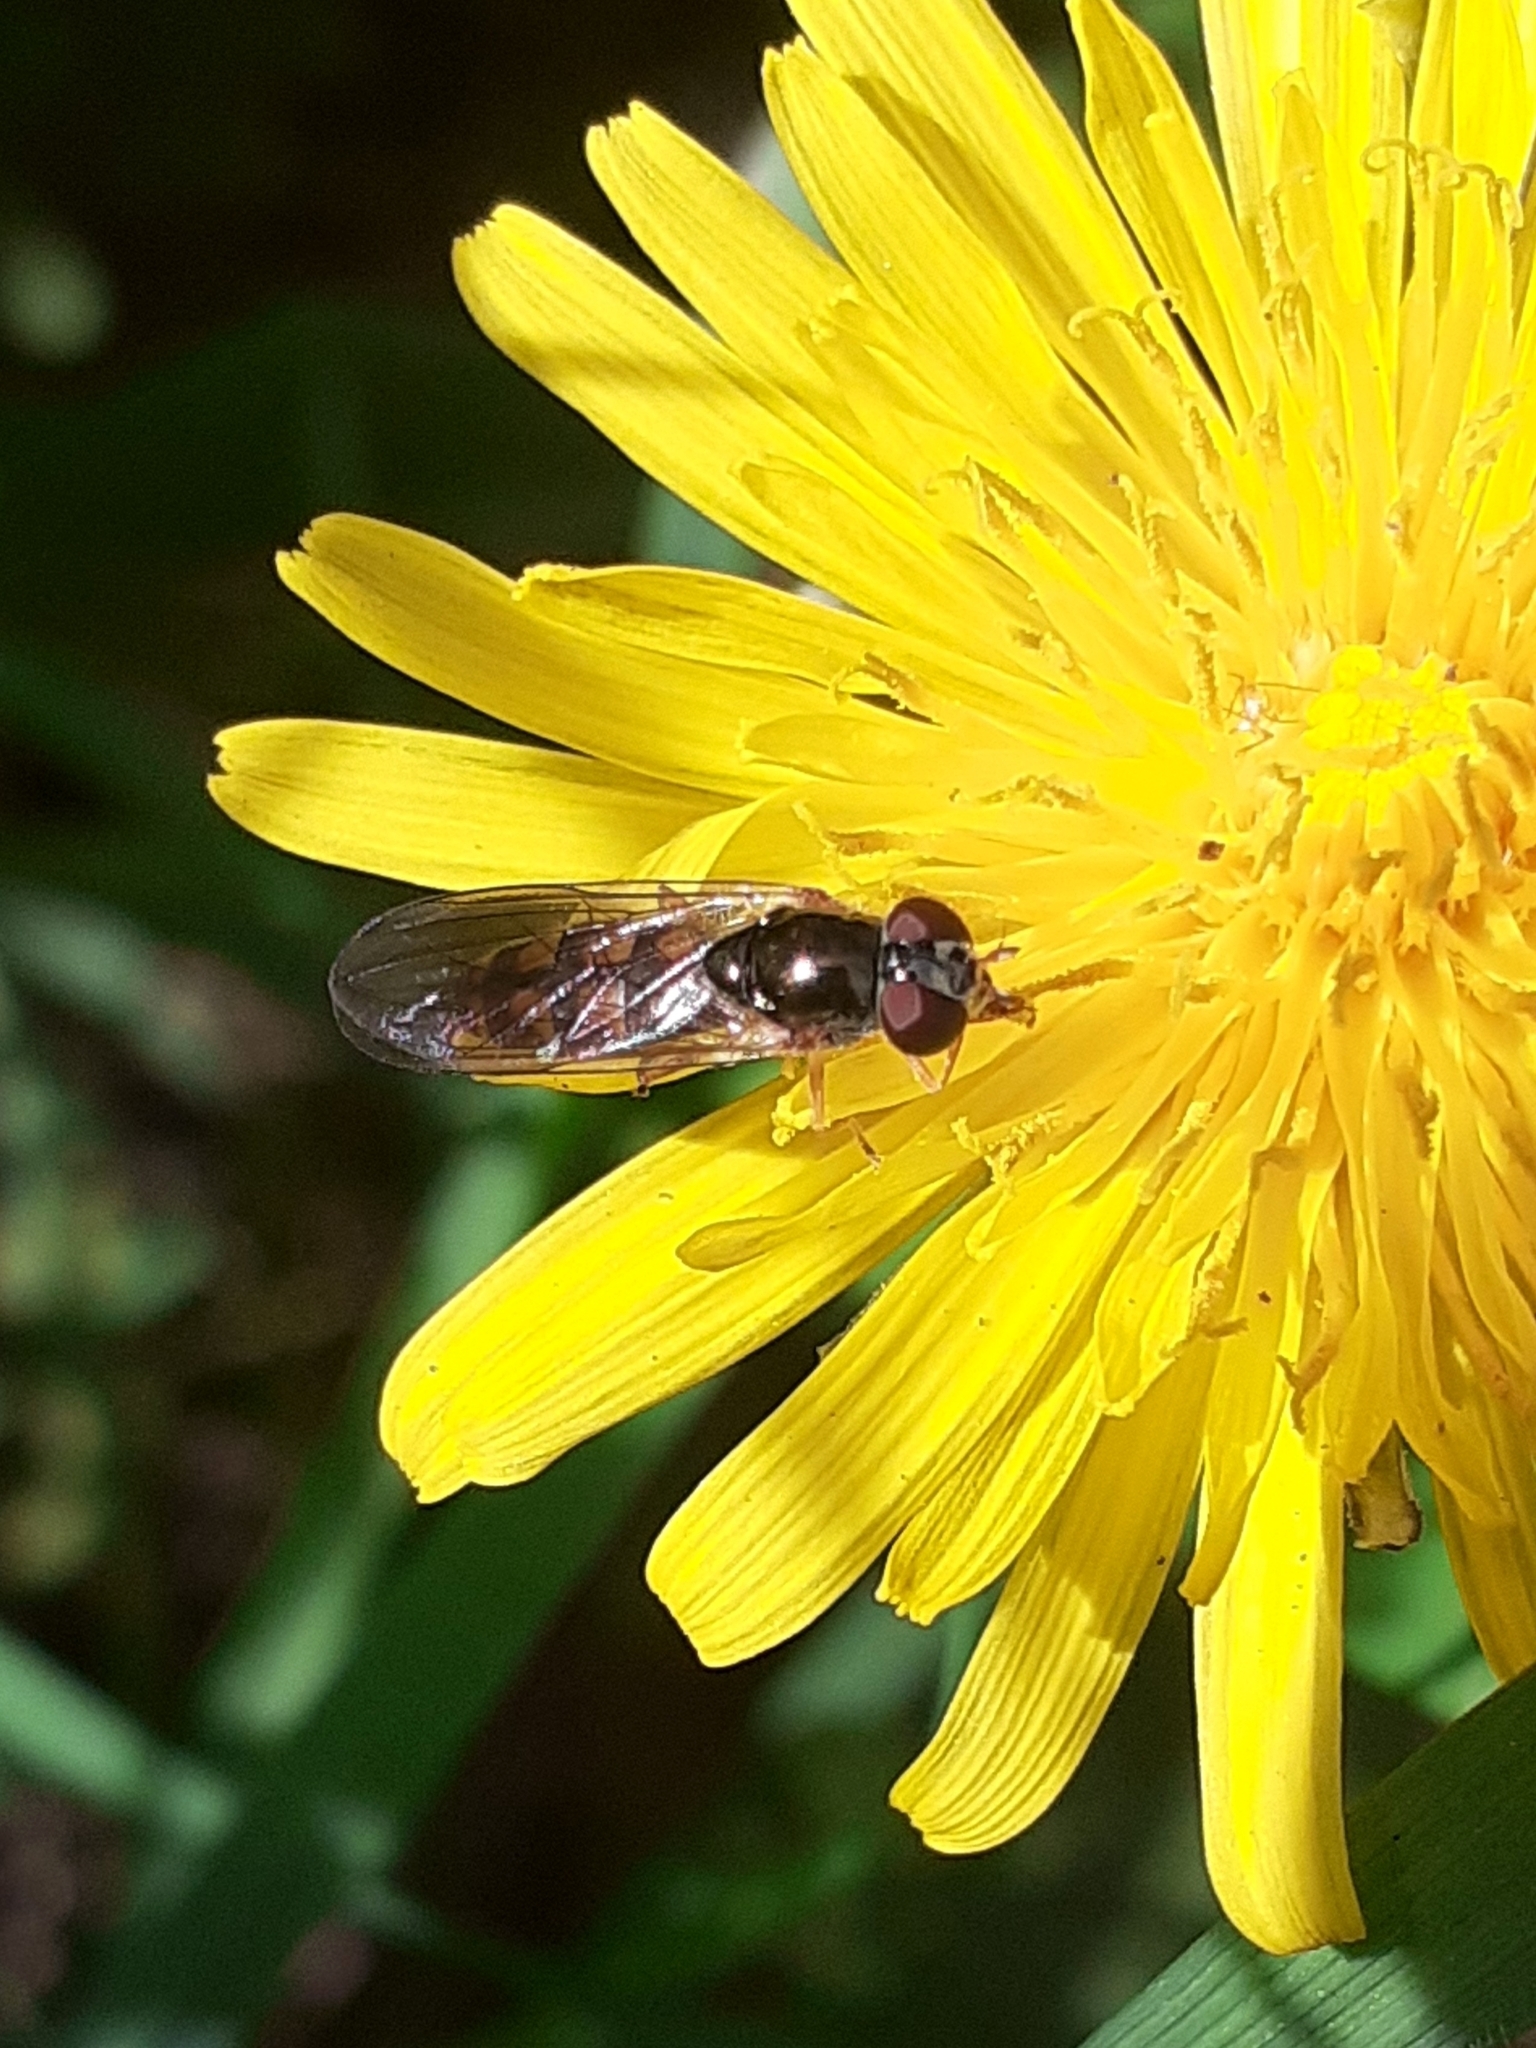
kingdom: Animalia
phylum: Arthropoda
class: Insecta
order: Diptera
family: Syrphidae
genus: Melanostoma
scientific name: Melanostoma scalare
